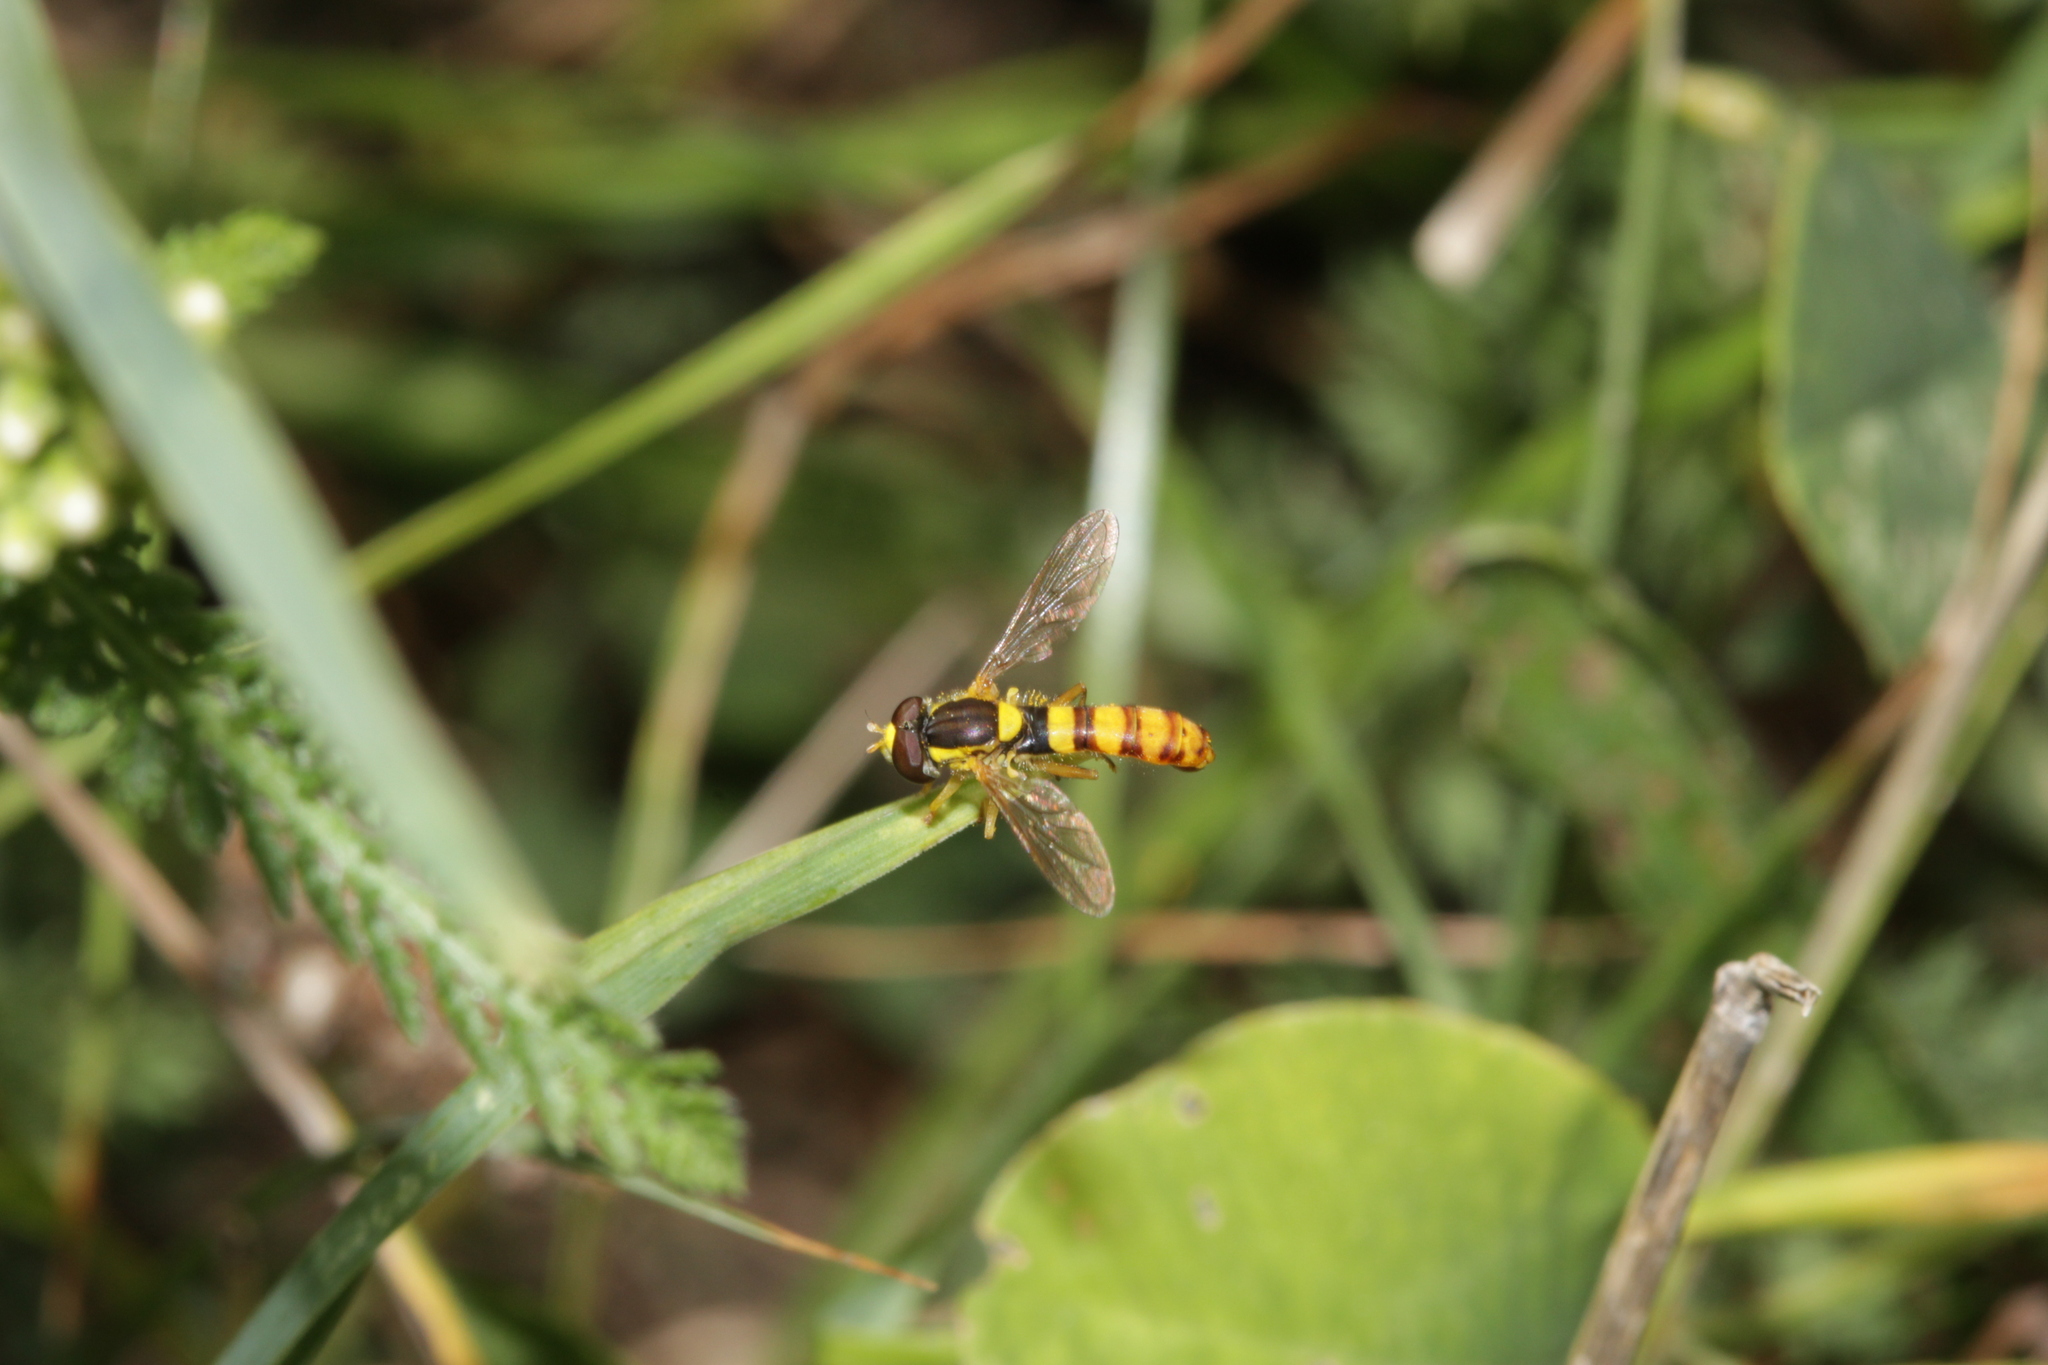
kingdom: Animalia
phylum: Arthropoda
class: Insecta
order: Diptera
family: Syrphidae
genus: Sphaerophoria
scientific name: Sphaerophoria
